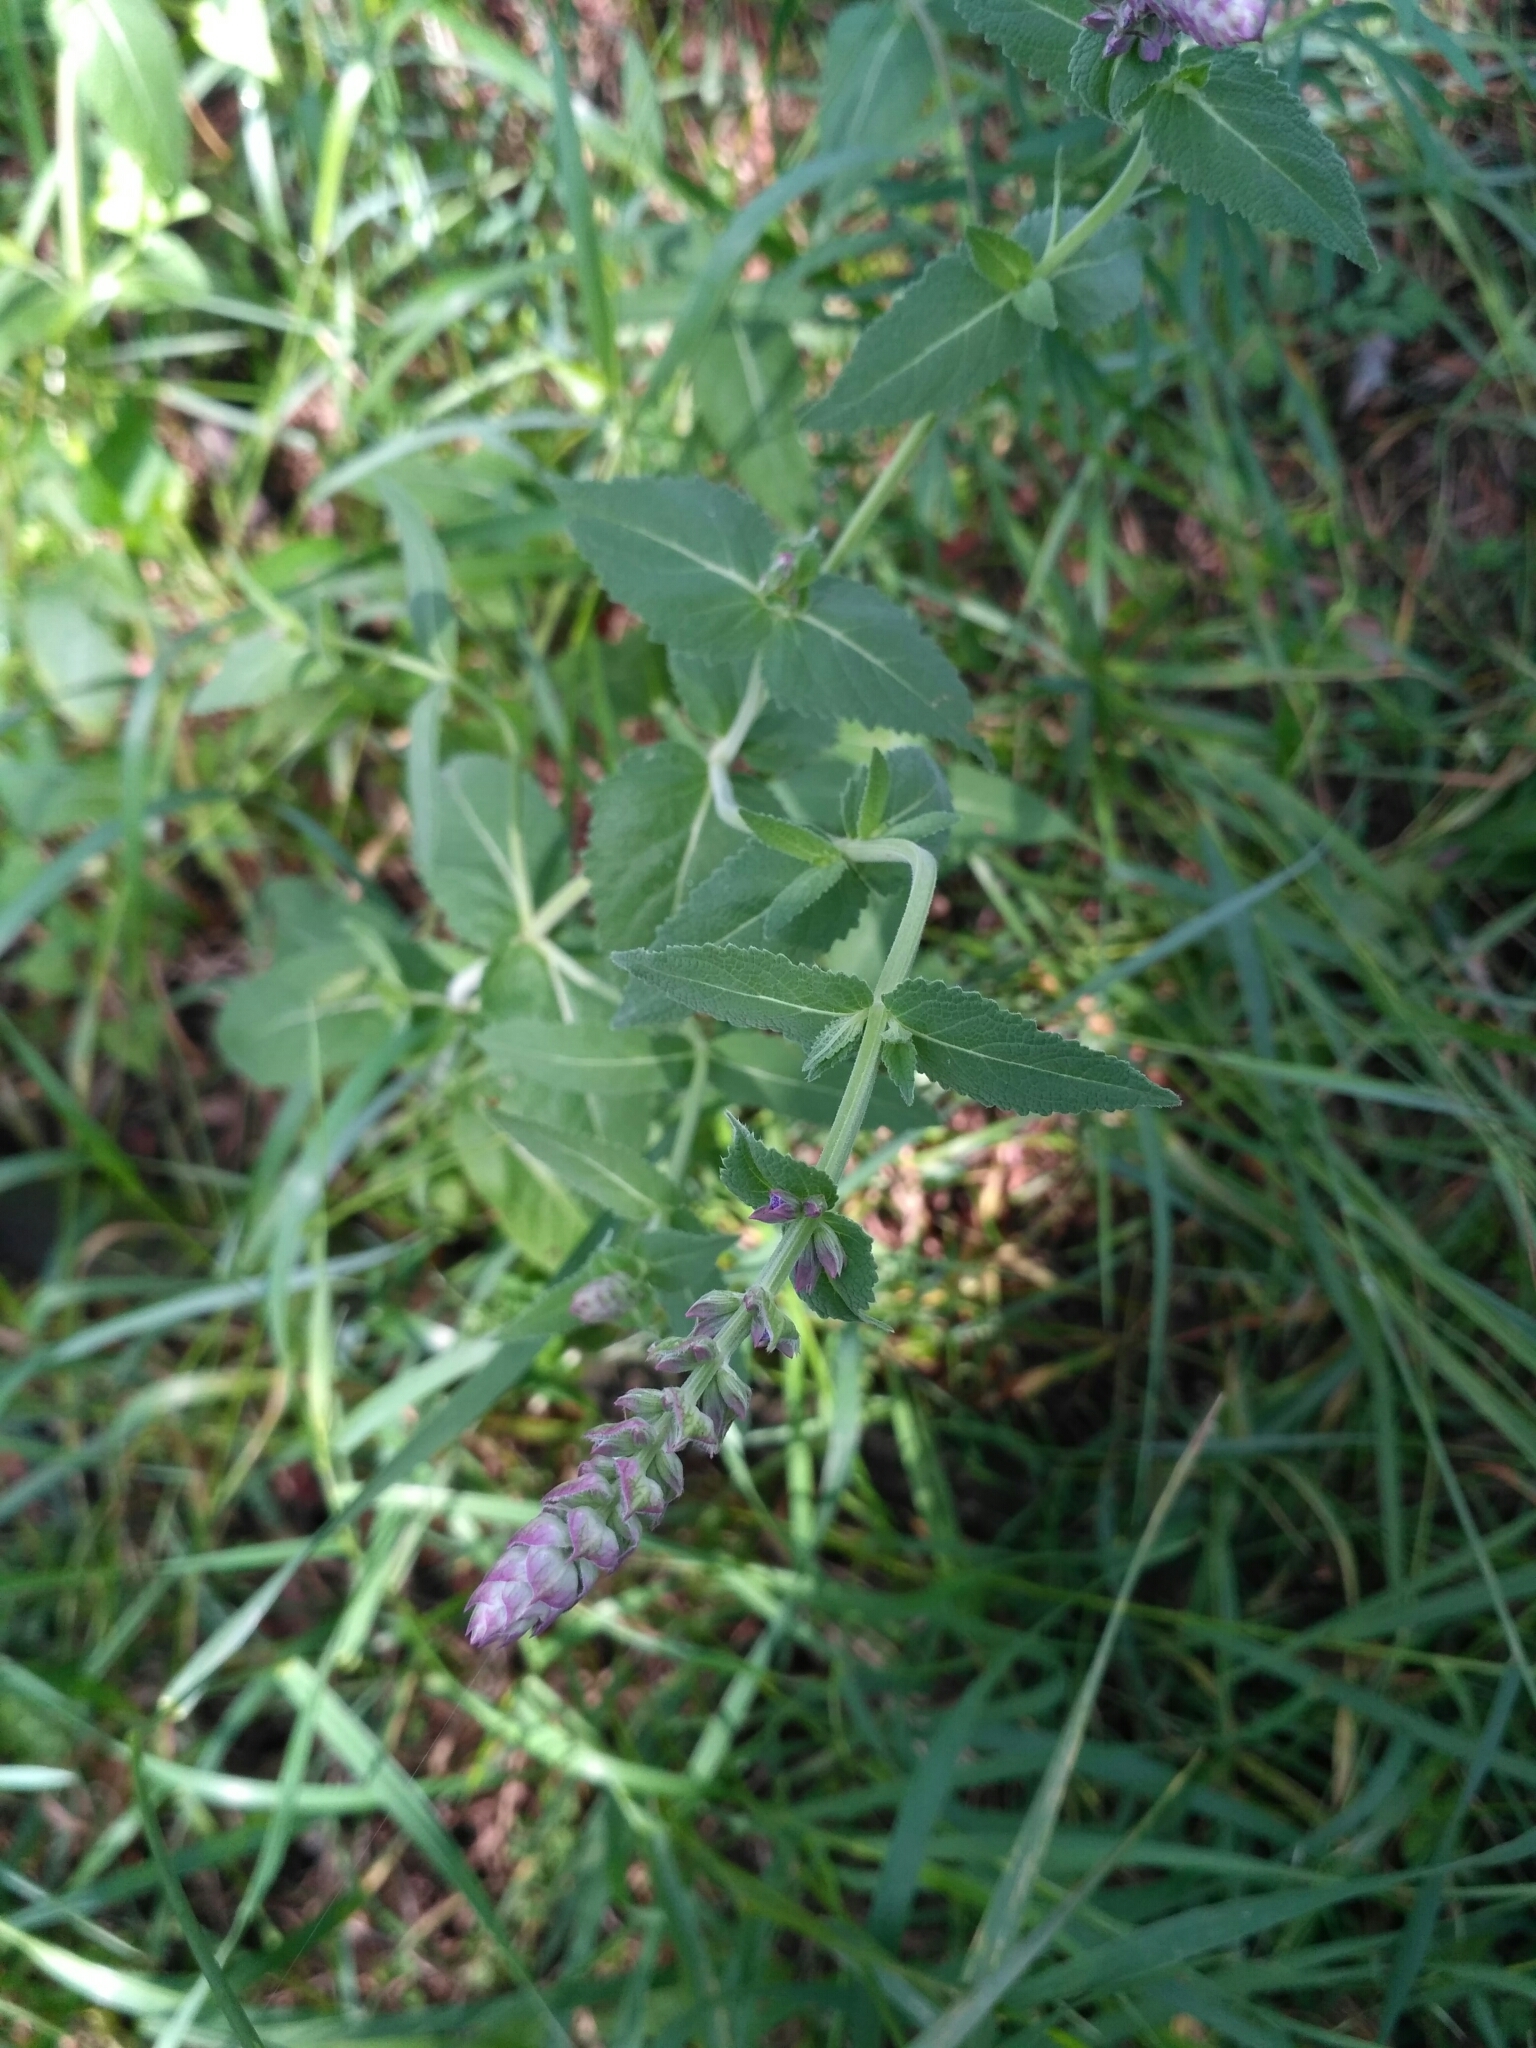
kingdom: Plantae
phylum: Tracheophyta
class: Magnoliopsida
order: Lamiales
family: Lamiaceae
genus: Salvia
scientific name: Salvia nemorosa
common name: Balkan clary
